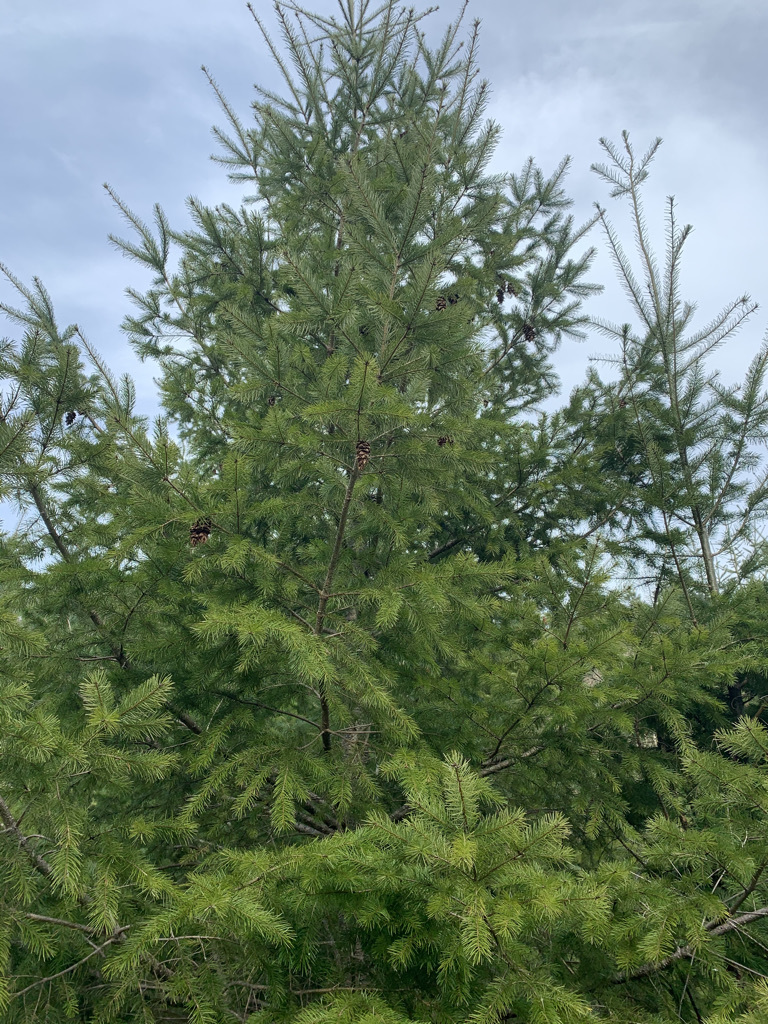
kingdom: Plantae
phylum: Tracheophyta
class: Pinopsida
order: Pinales
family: Pinaceae
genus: Pseudotsuga
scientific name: Pseudotsuga menziesii
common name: Douglas fir
